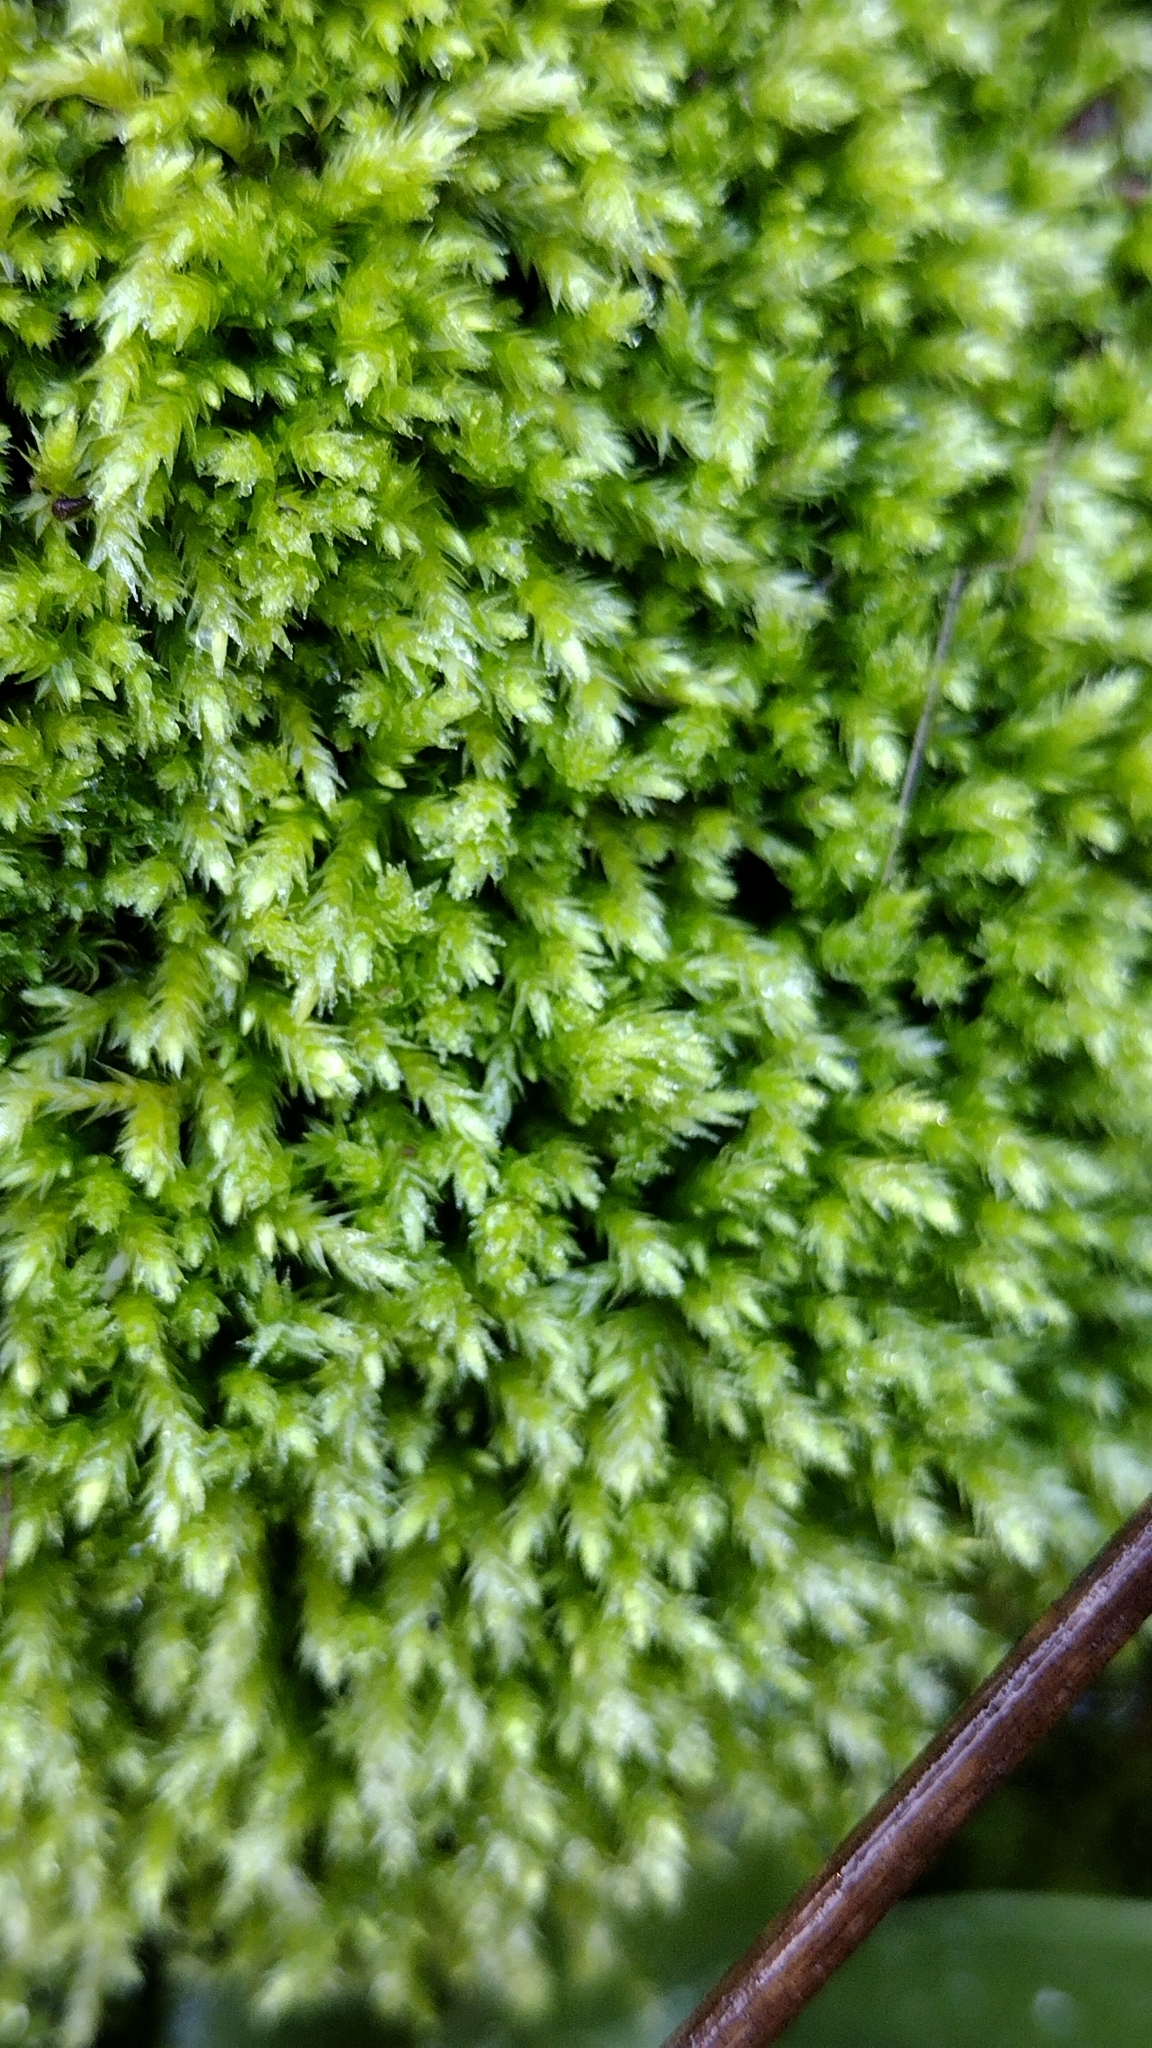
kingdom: Plantae
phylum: Bryophyta
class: Bryopsida
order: Hypnales
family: Antitrichiaceae
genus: Antitrichia
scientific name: Antitrichia californica
